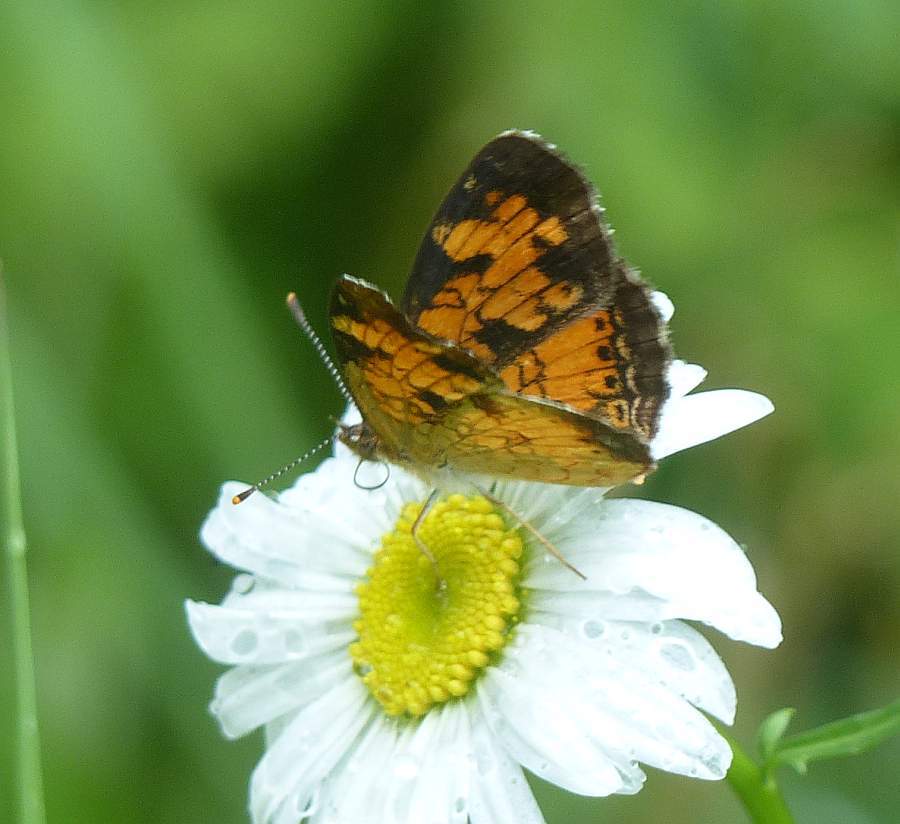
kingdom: Animalia
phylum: Arthropoda
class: Insecta
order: Lepidoptera
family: Nymphalidae
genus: Phyciodes
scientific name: Phyciodes tharos
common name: Pearl crescent
